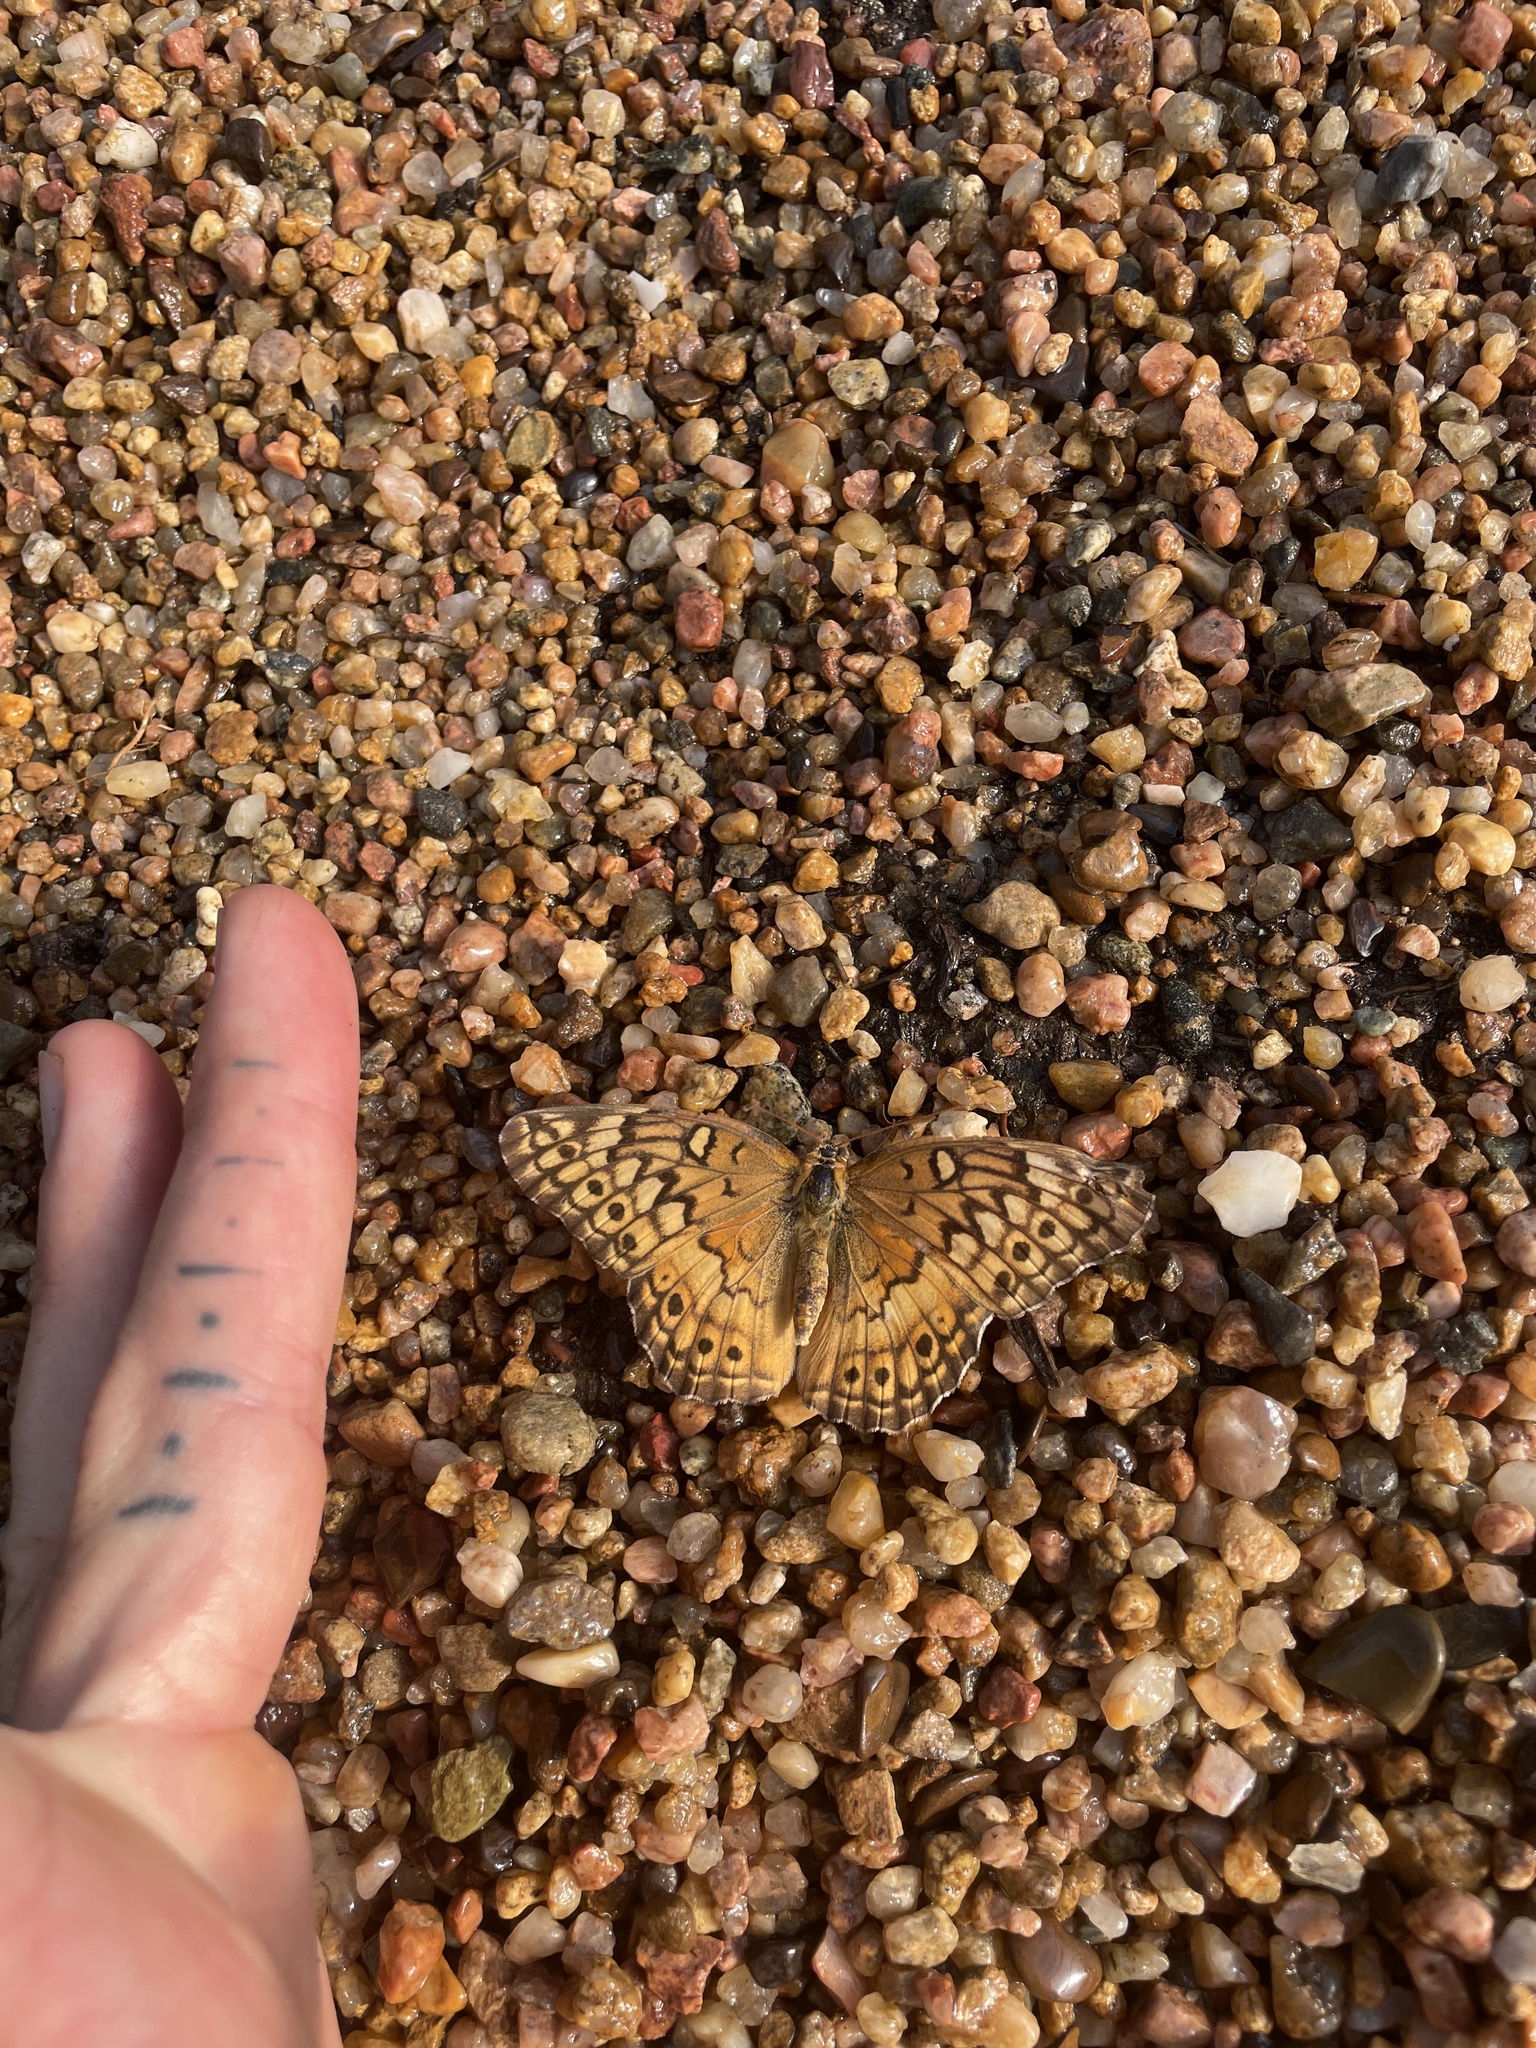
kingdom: Animalia
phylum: Arthropoda
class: Insecta
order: Lepidoptera
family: Nymphalidae
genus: Euptoieta
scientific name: Euptoieta claudia
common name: Variegated fritillary
